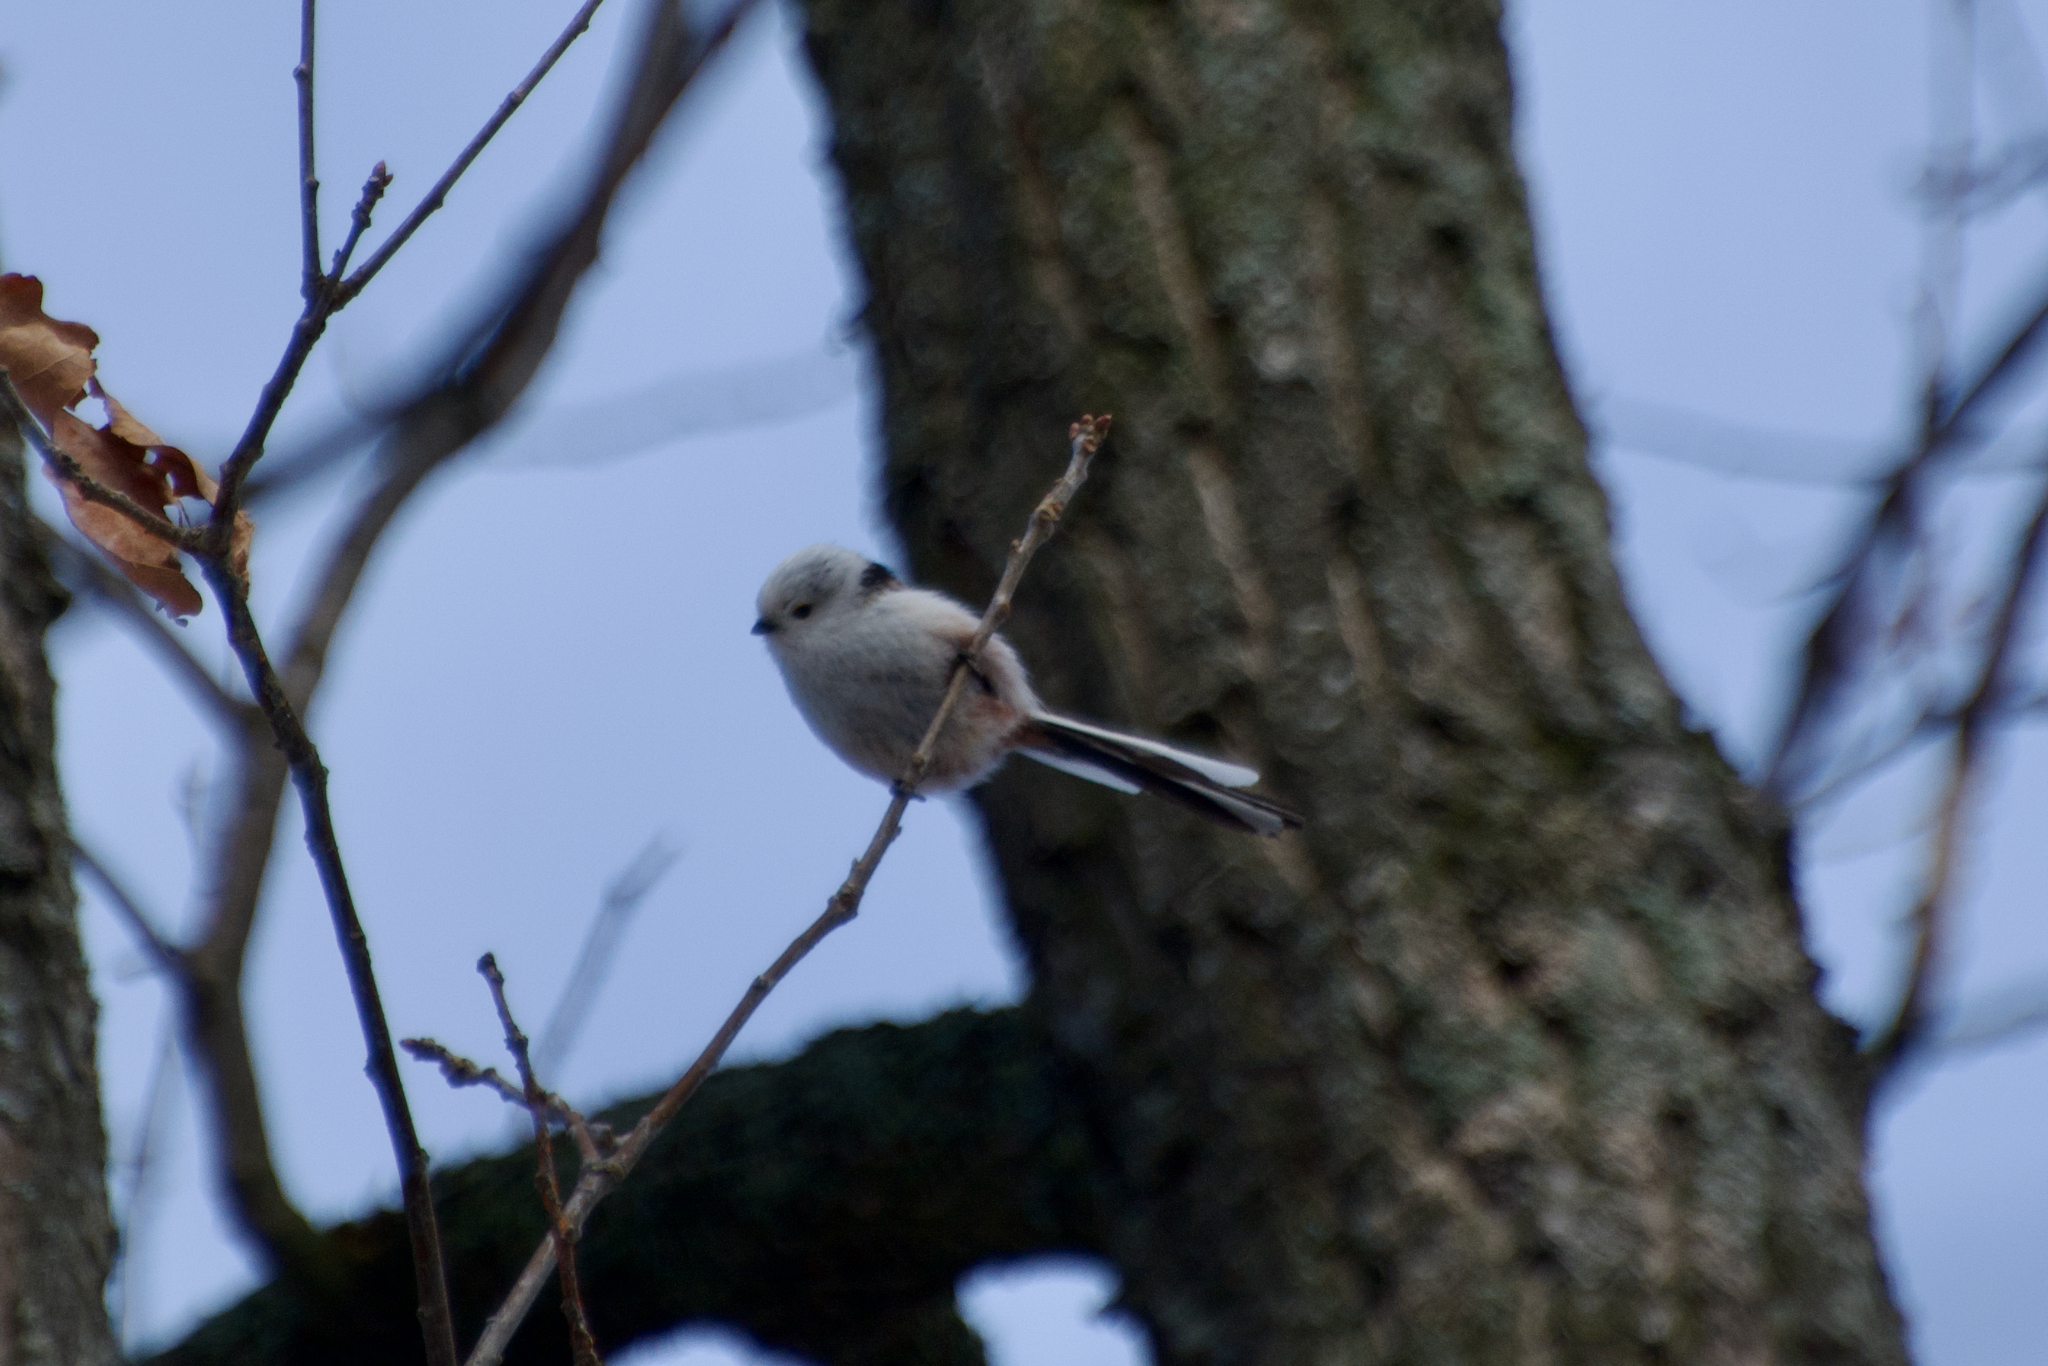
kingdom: Animalia
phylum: Chordata
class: Aves
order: Passeriformes
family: Aegithalidae
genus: Aegithalos
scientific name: Aegithalos caudatus
